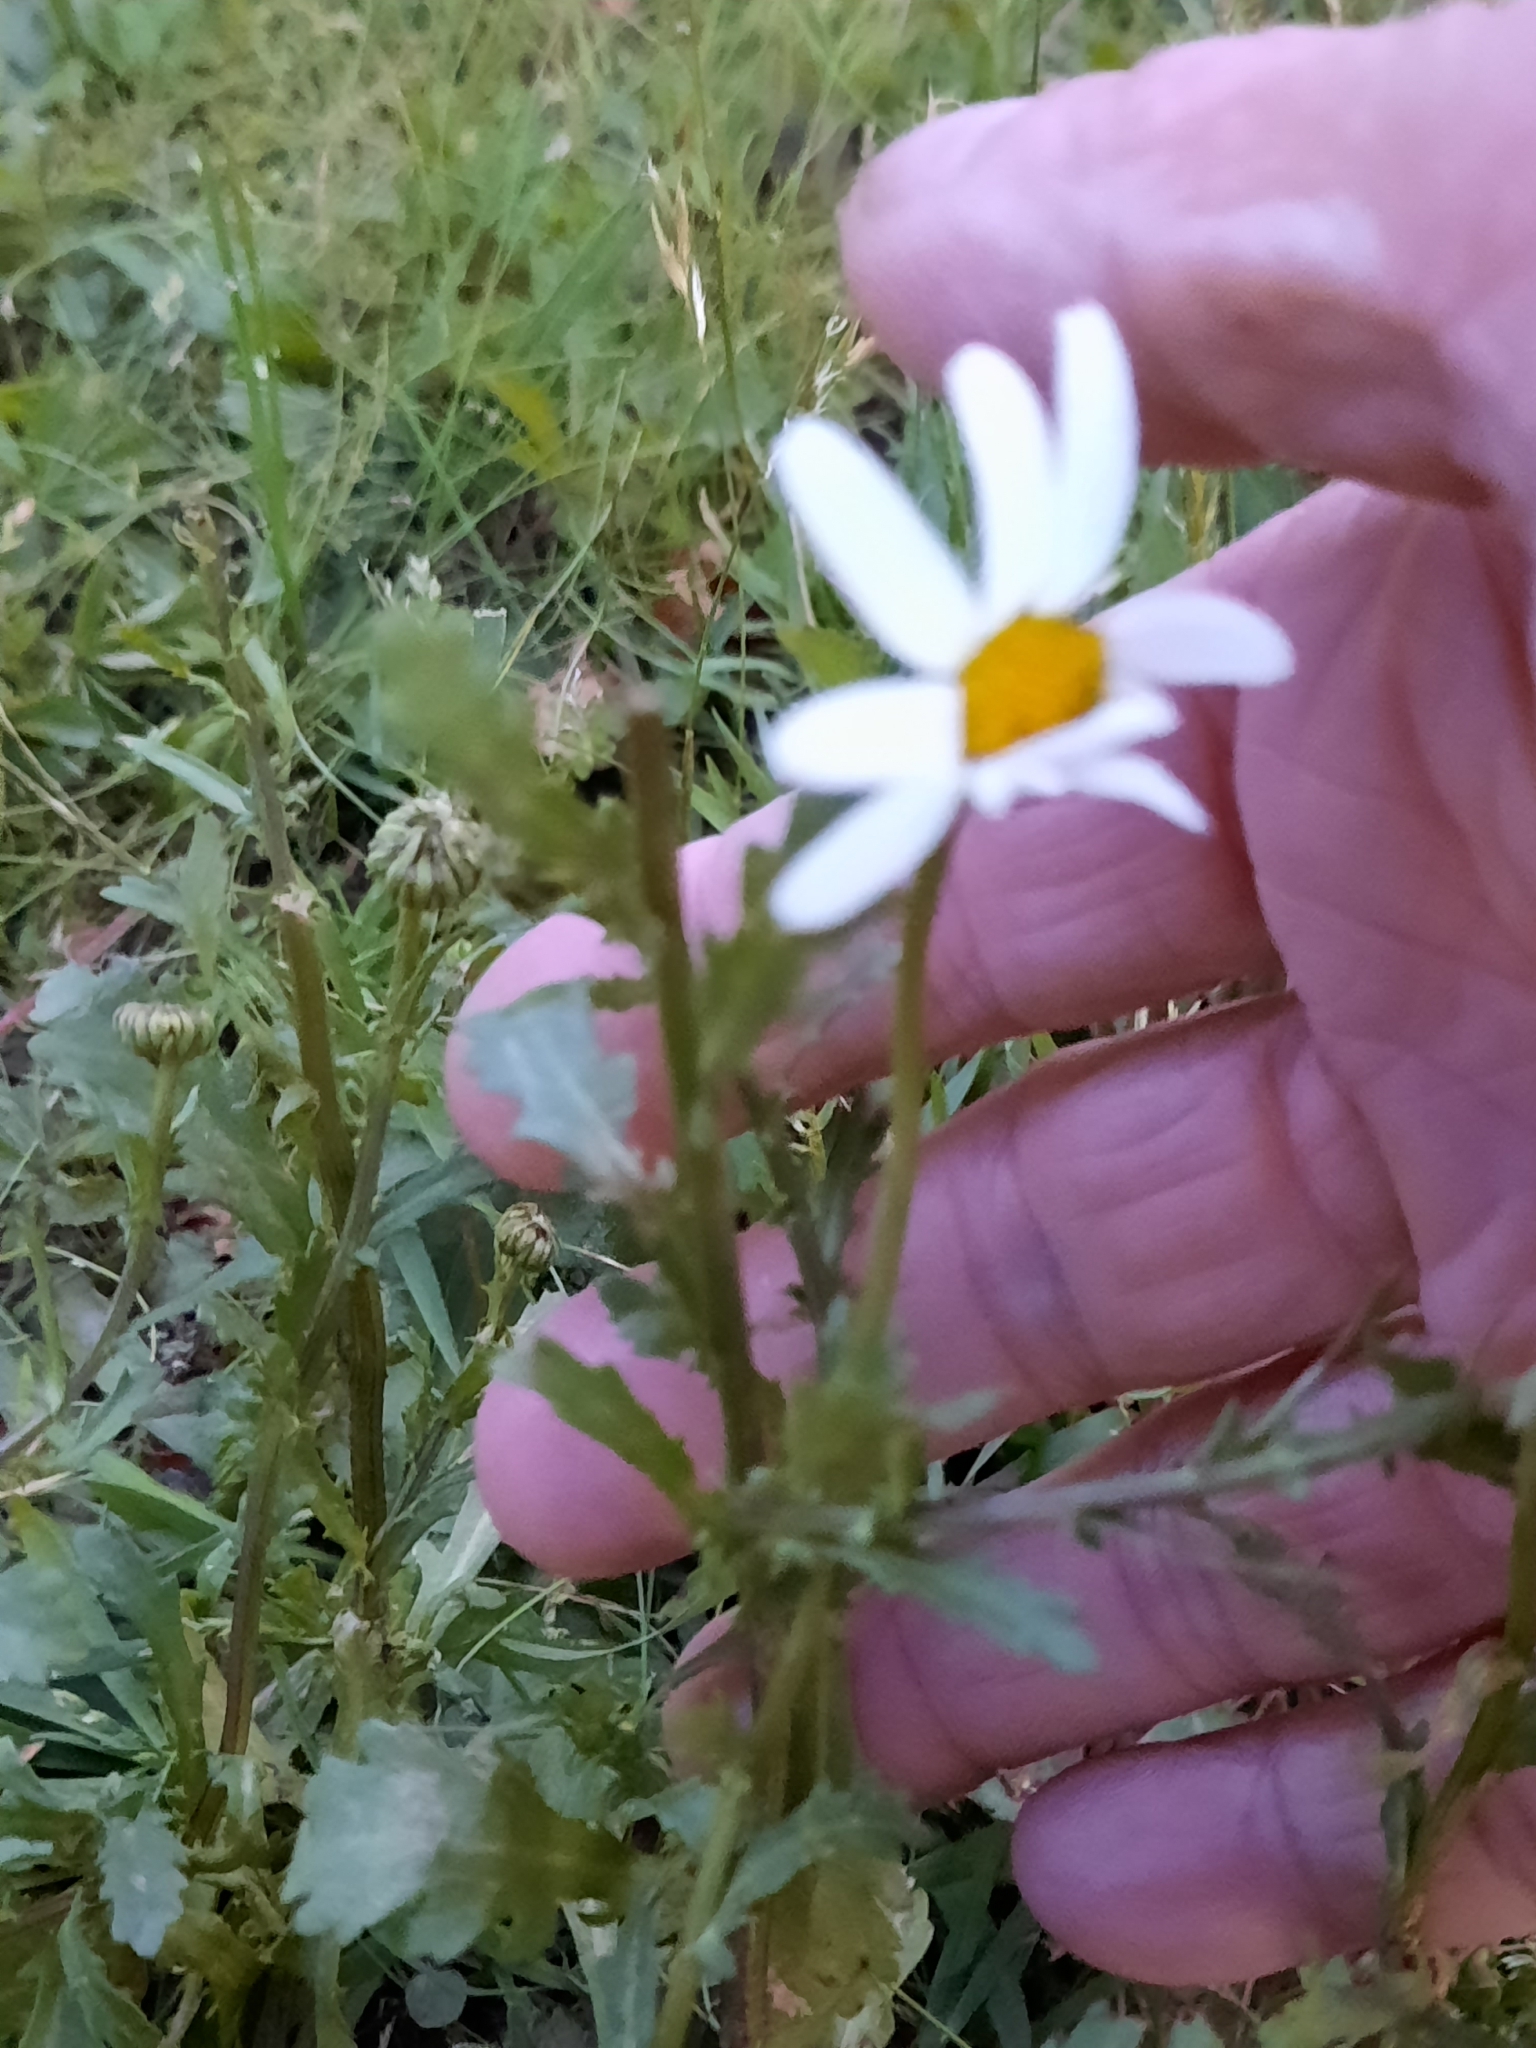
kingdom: Plantae
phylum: Tracheophyta
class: Magnoliopsida
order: Asterales
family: Asteraceae
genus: Leucanthemum
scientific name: Leucanthemum vulgare
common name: Oxeye daisy
